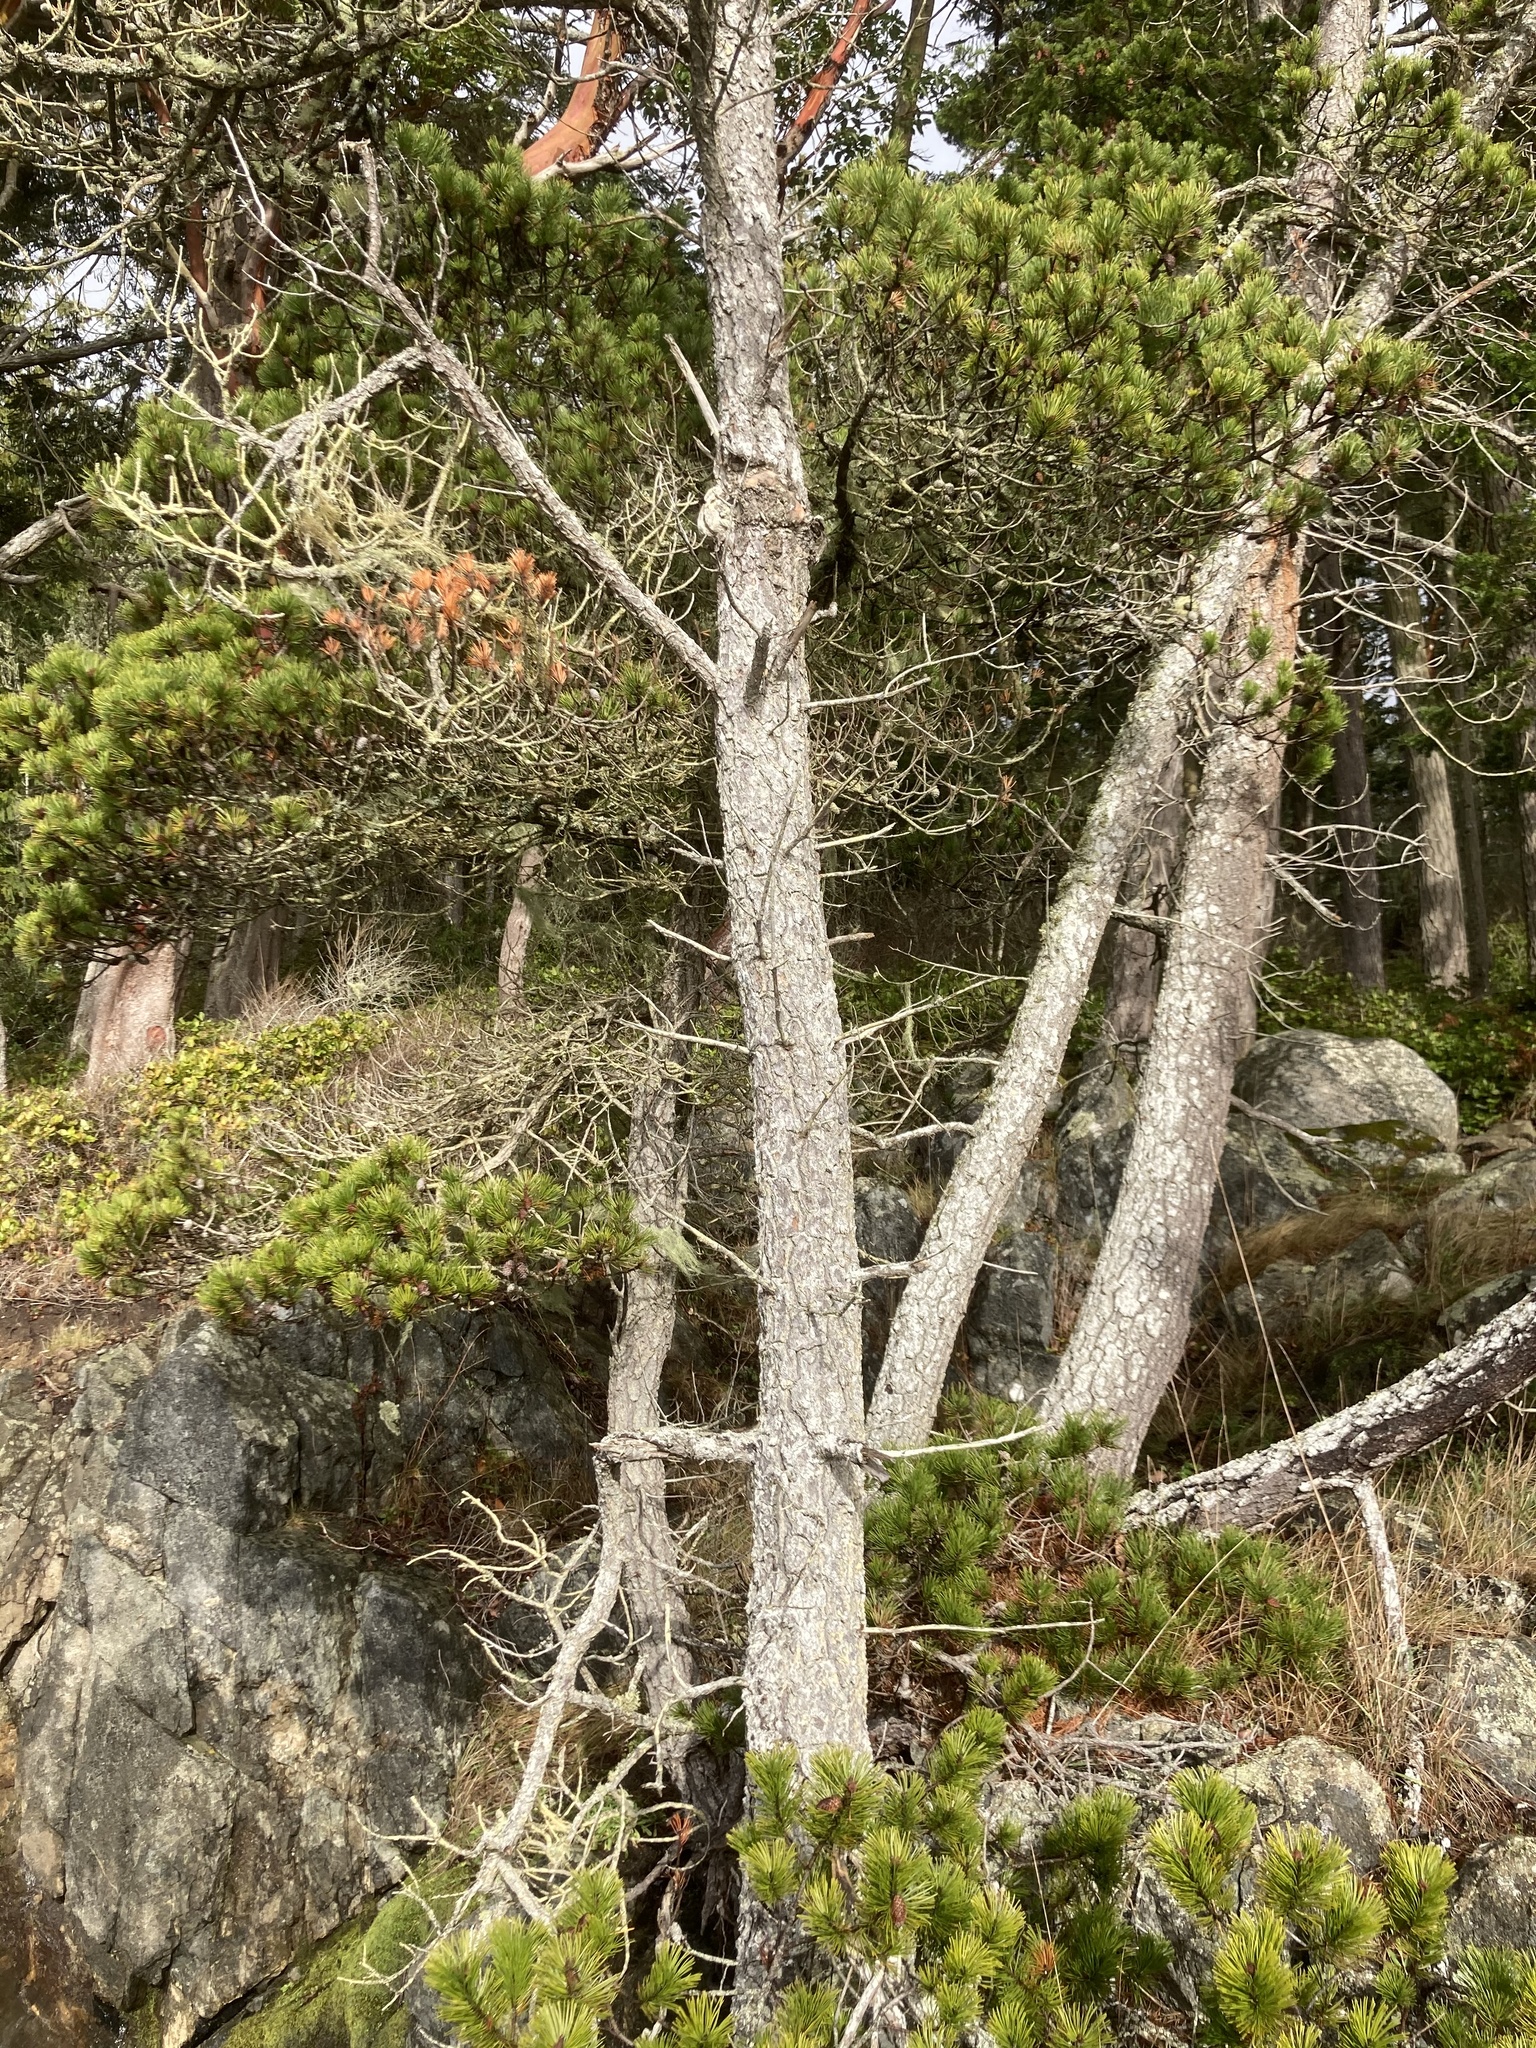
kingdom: Plantae
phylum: Tracheophyta
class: Pinopsida
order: Pinales
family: Pinaceae
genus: Pinus
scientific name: Pinus contorta
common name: Lodgepole pine
